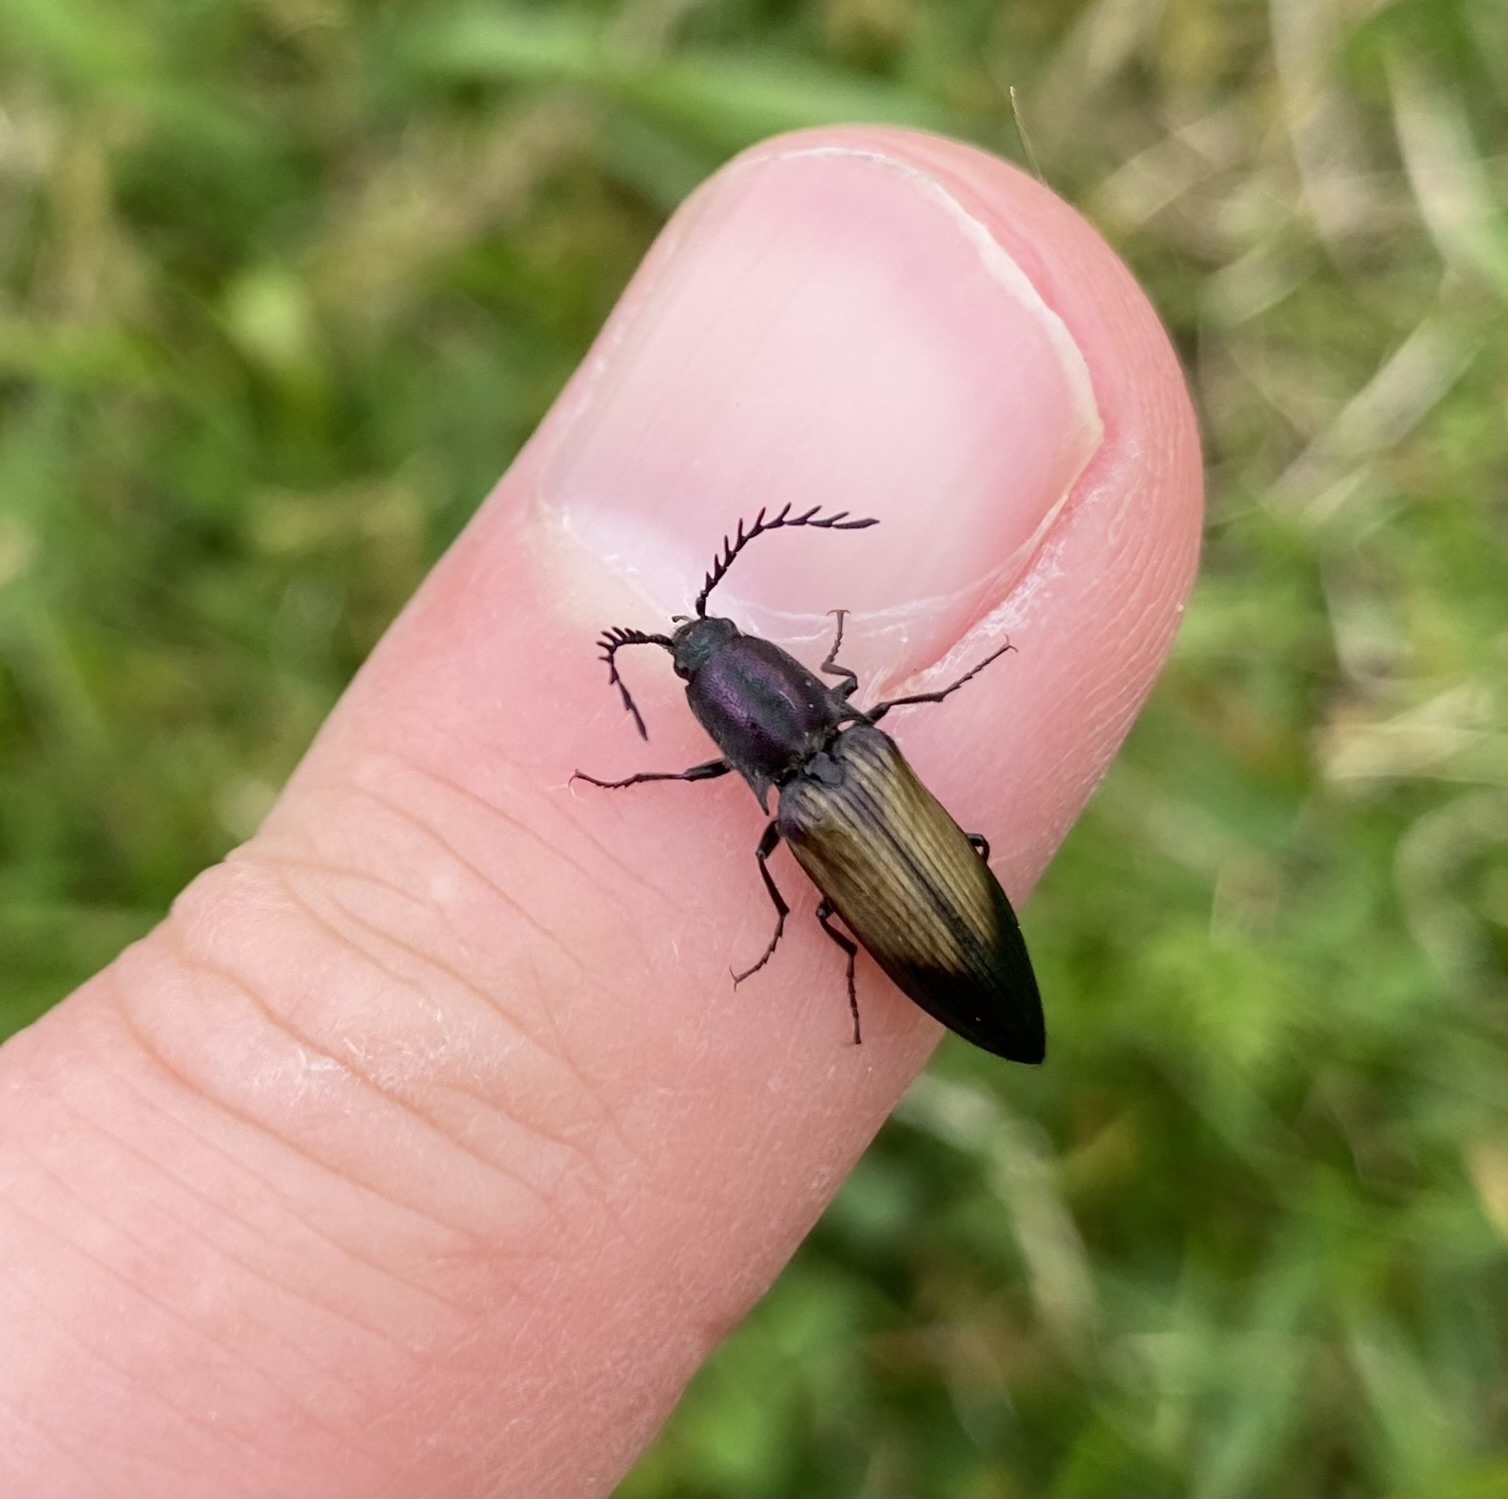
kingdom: Animalia
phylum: Arthropoda
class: Insecta
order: Coleoptera
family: Elateridae
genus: Ctenicera
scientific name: Ctenicera cuprea
